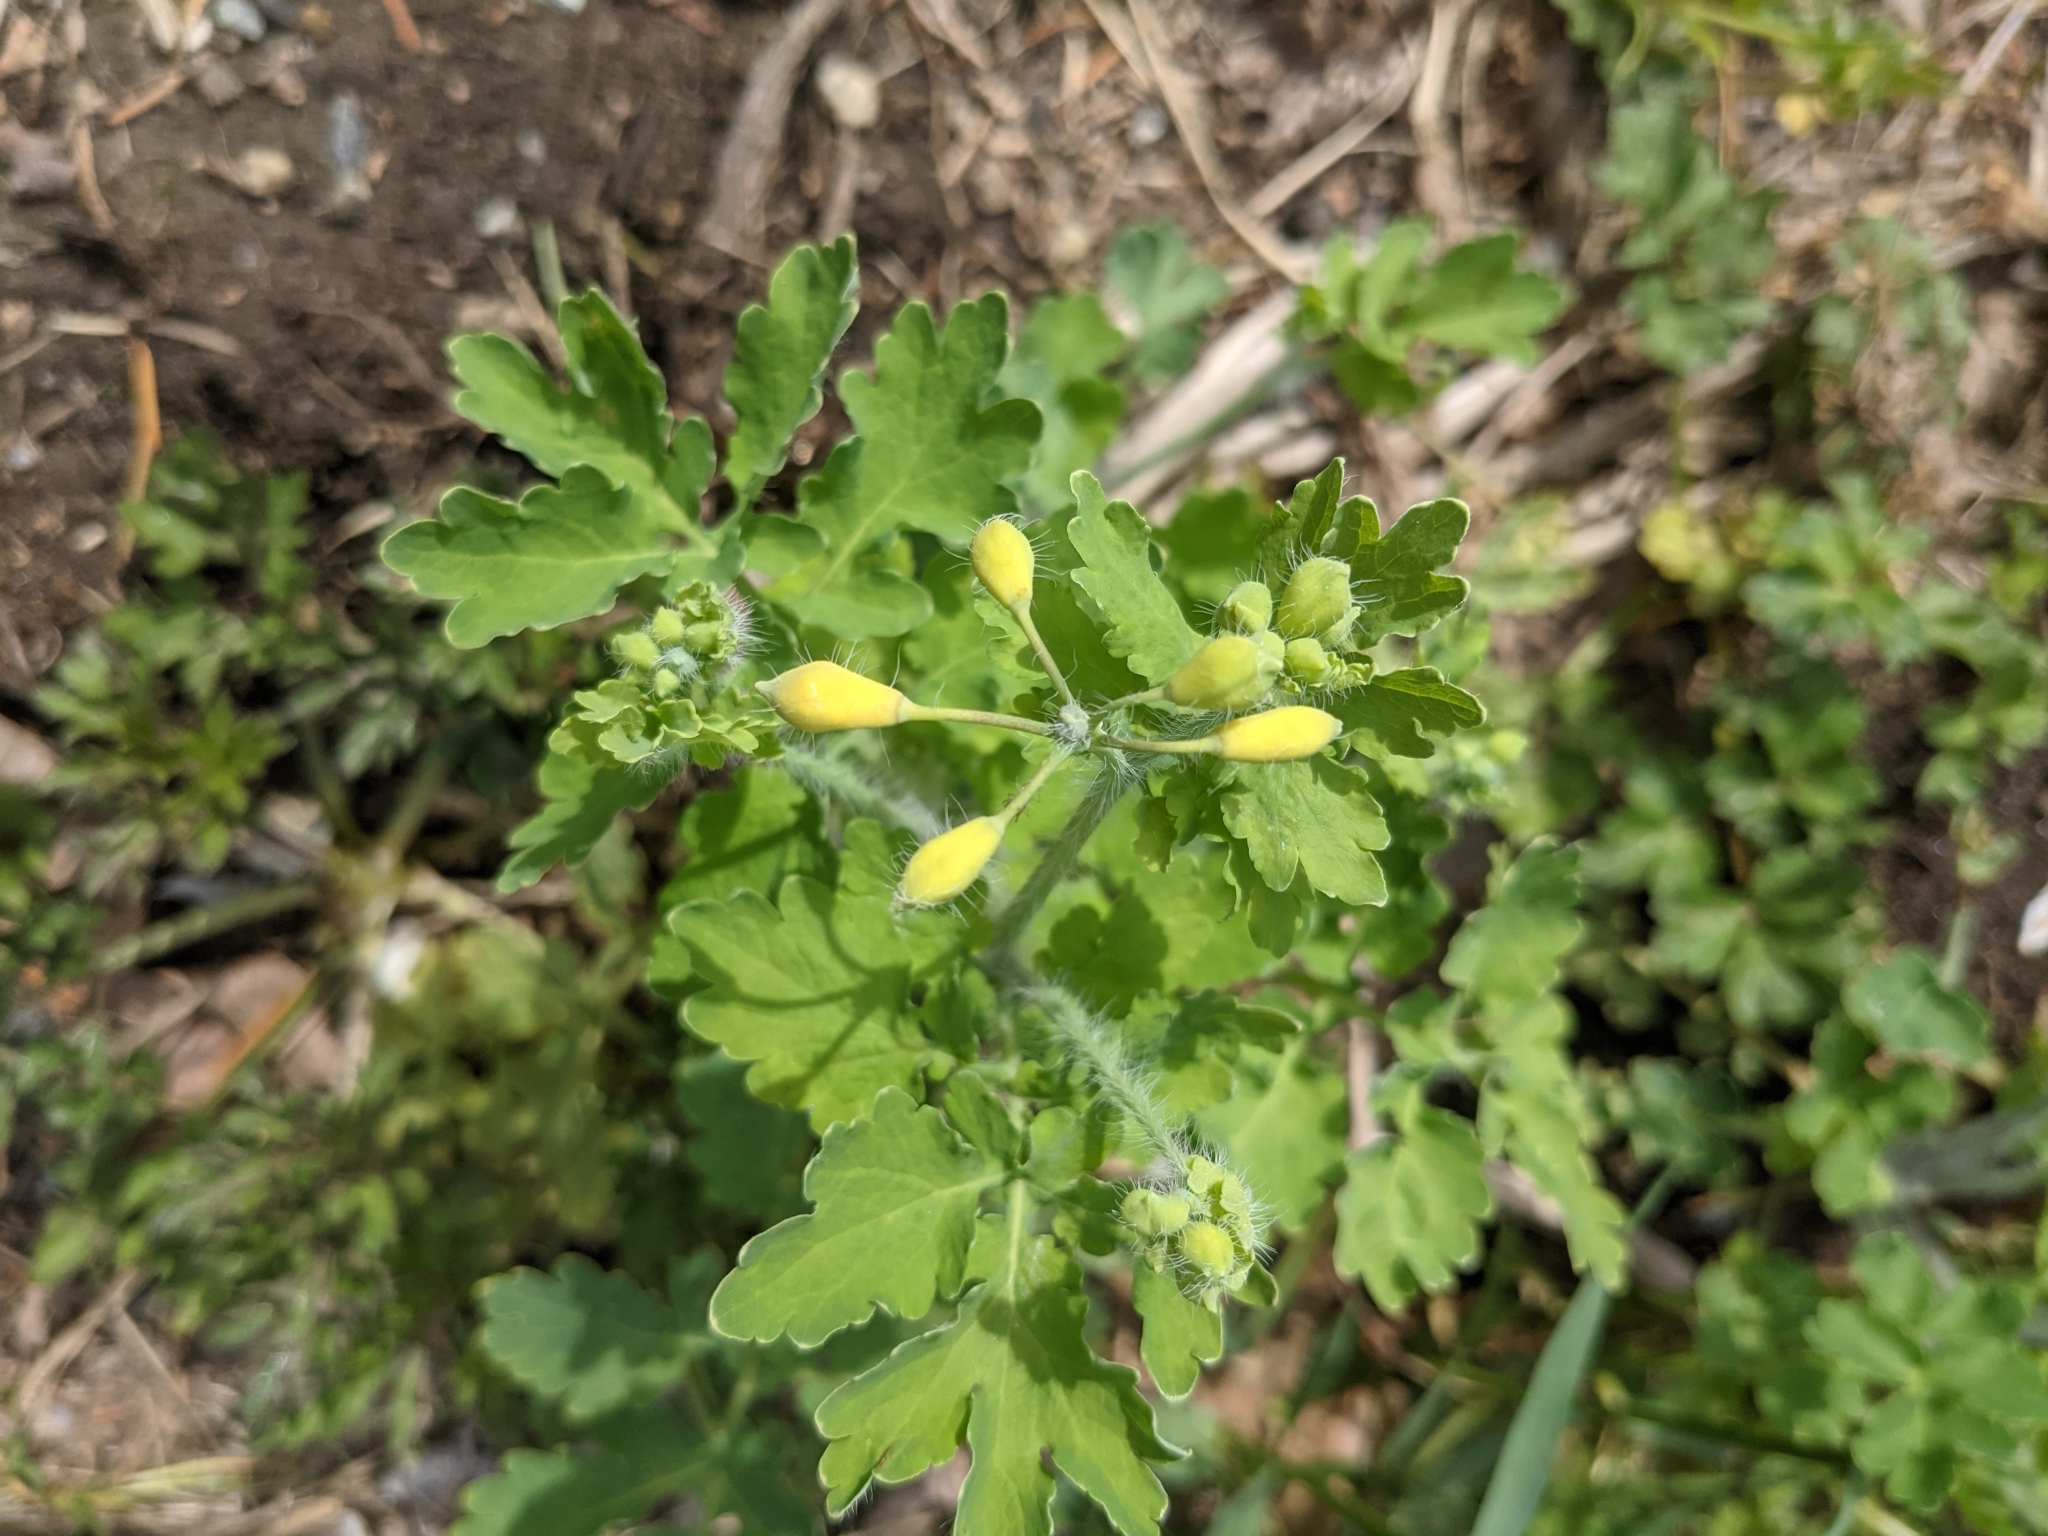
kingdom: Plantae
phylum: Tracheophyta
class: Magnoliopsida
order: Ranunculales
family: Papaveraceae
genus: Chelidonium
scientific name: Chelidonium majus
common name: Greater celandine
